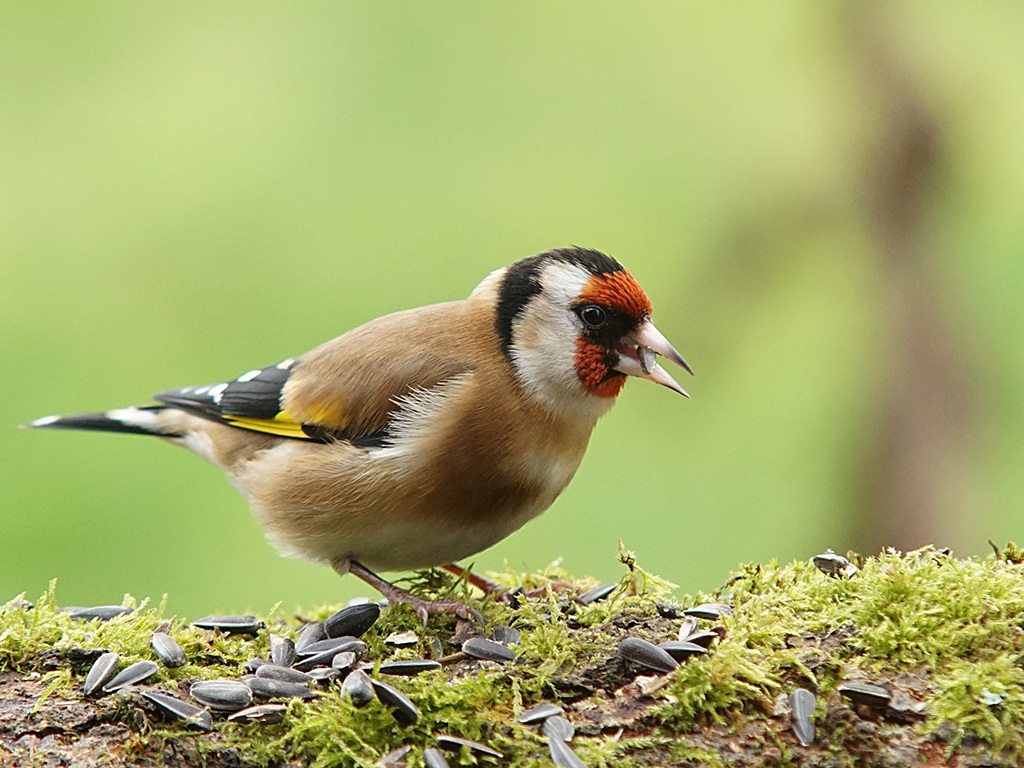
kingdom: Animalia
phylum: Chordata
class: Aves
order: Passeriformes
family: Fringillidae
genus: Carduelis
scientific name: Carduelis carduelis
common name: European goldfinch
